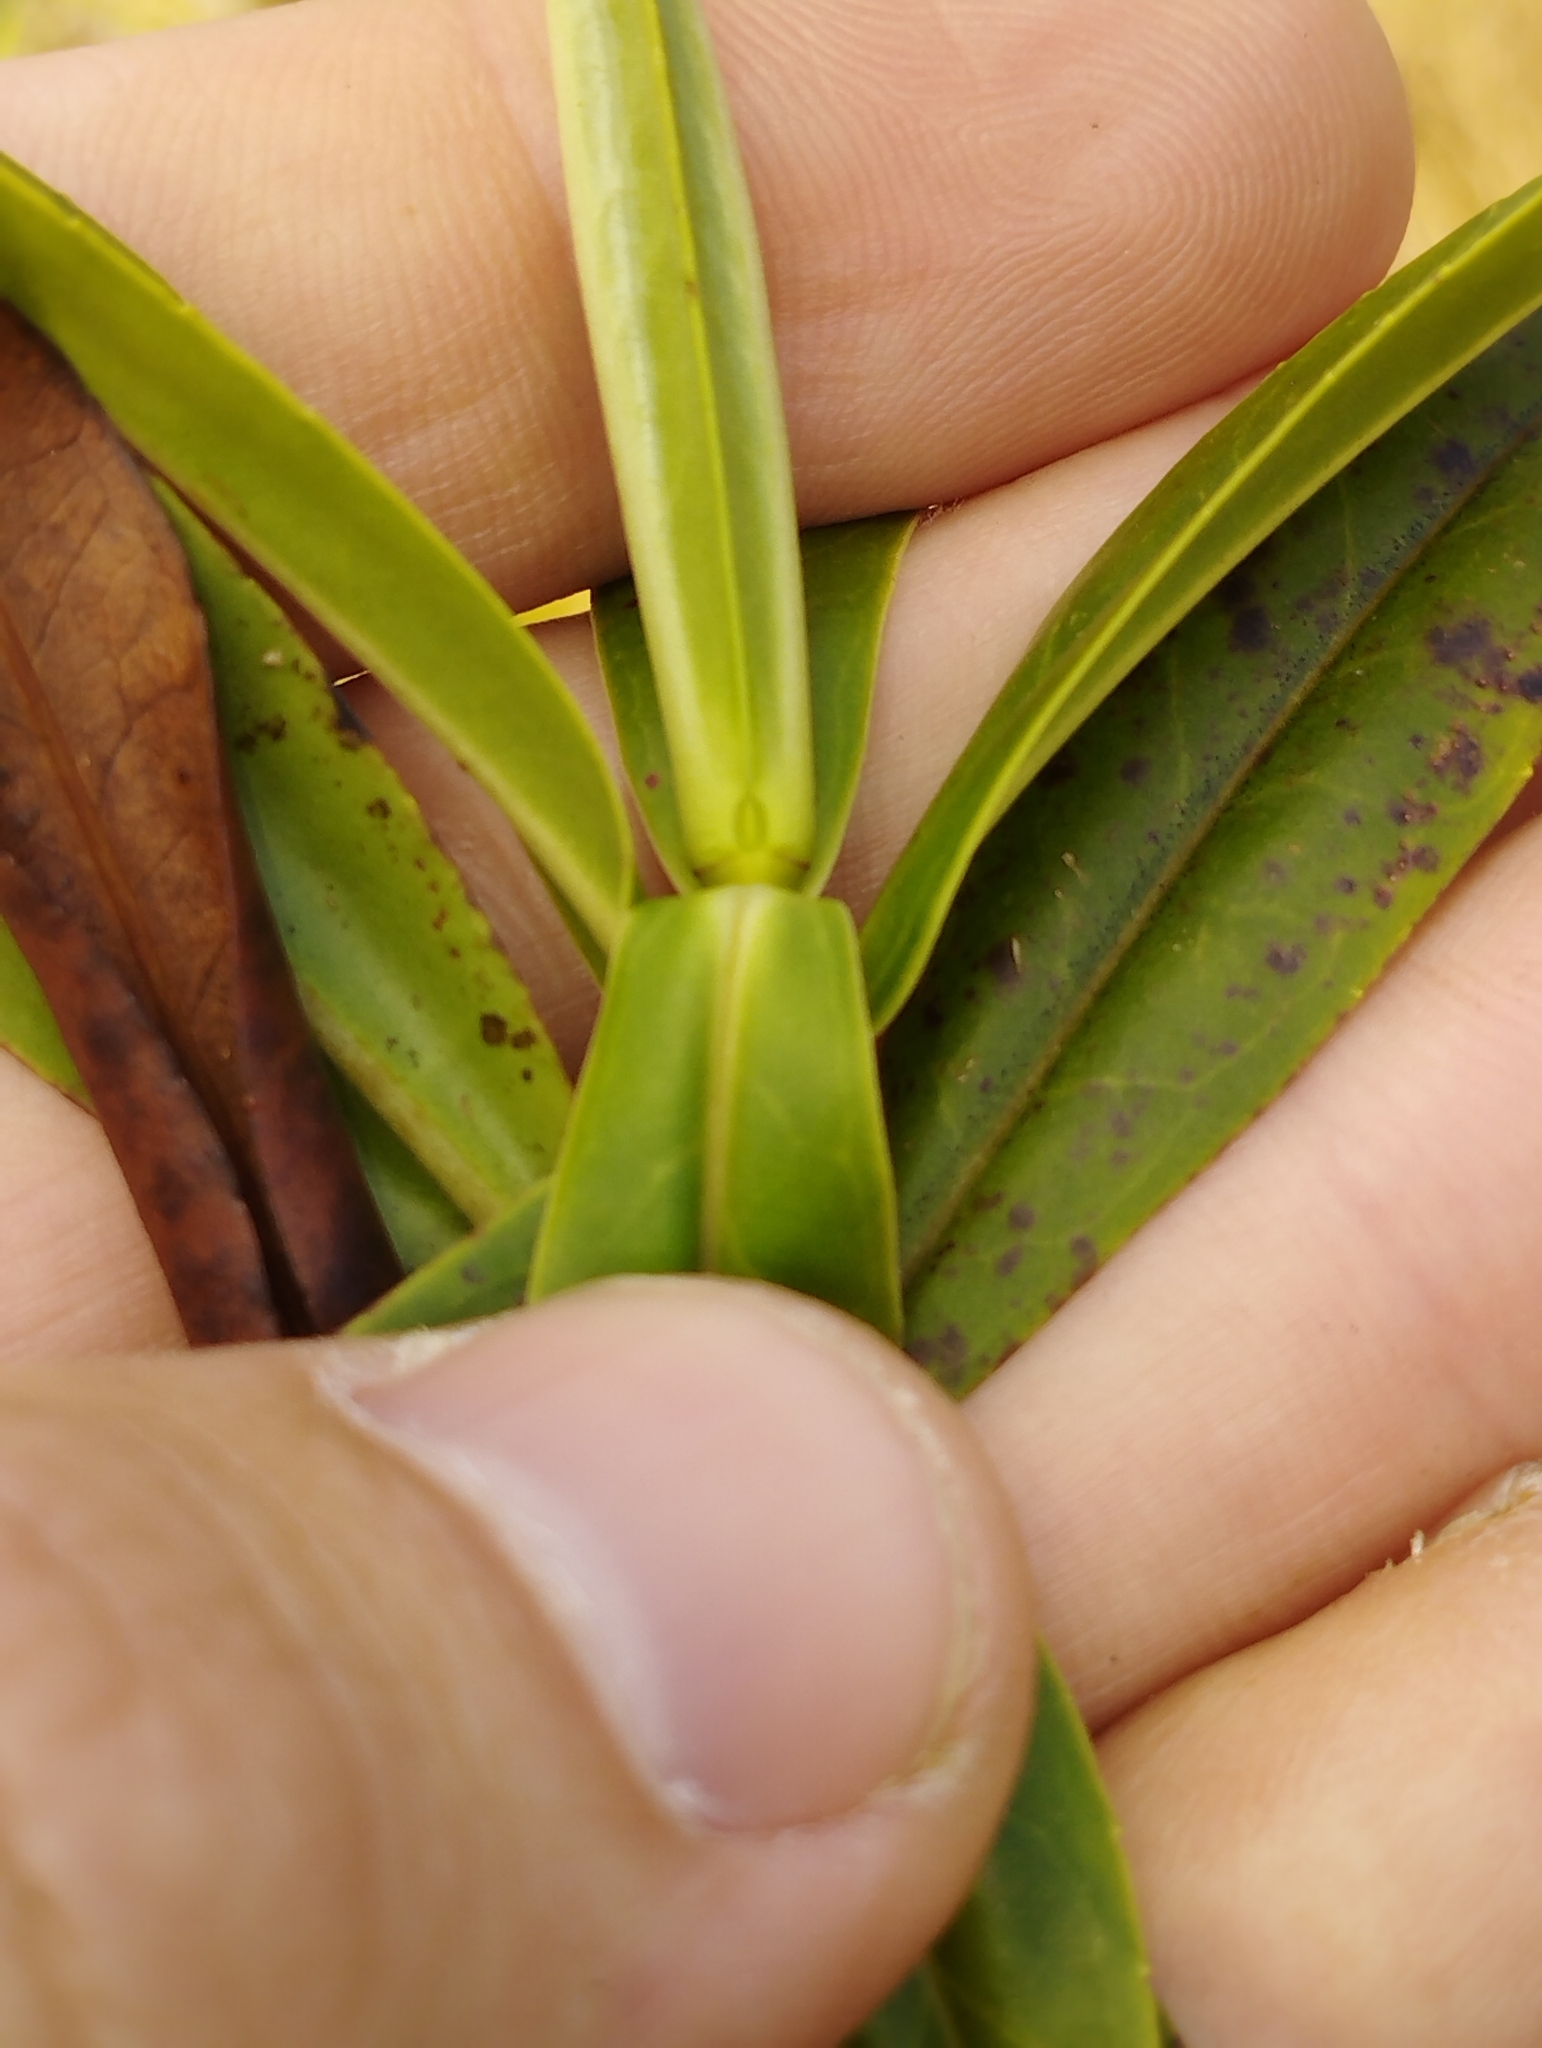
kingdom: Plantae
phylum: Tracheophyta
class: Magnoliopsida
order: Lamiales
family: Plantaginaceae
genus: Veronica
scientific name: Veronica salicifolia
